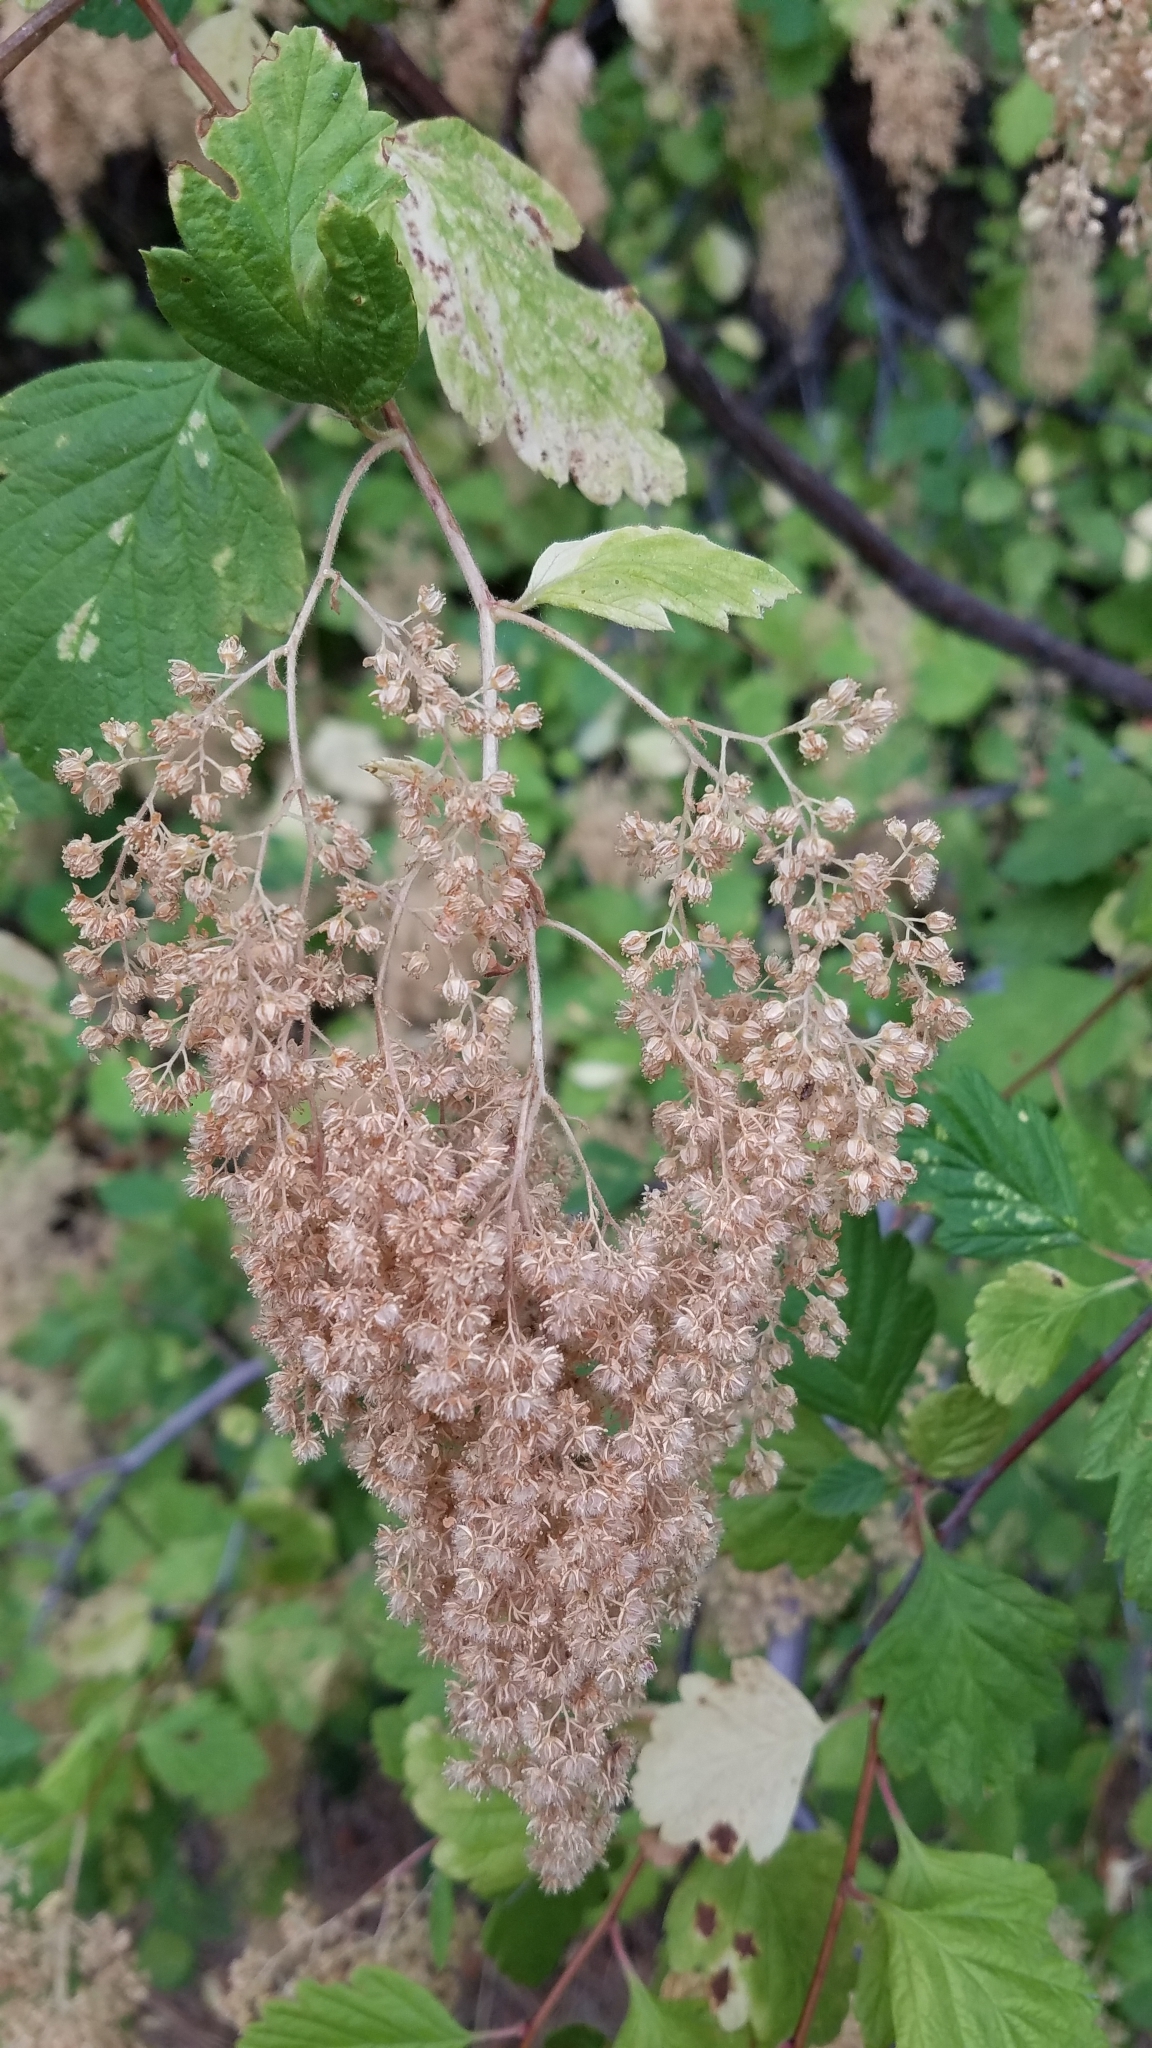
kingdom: Plantae
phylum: Tracheophyta
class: Magnoliopsida
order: Rosales
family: Rosaceae
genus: Holodiscus
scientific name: Holodiscus discolor
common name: Oceanspray
